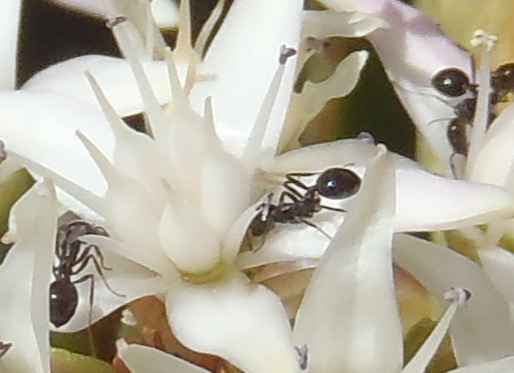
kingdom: Animalia
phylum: Arthropoda
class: Insecta
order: Hymenoptera
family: Formicidae
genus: Monomorium
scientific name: Monomorium fridae
